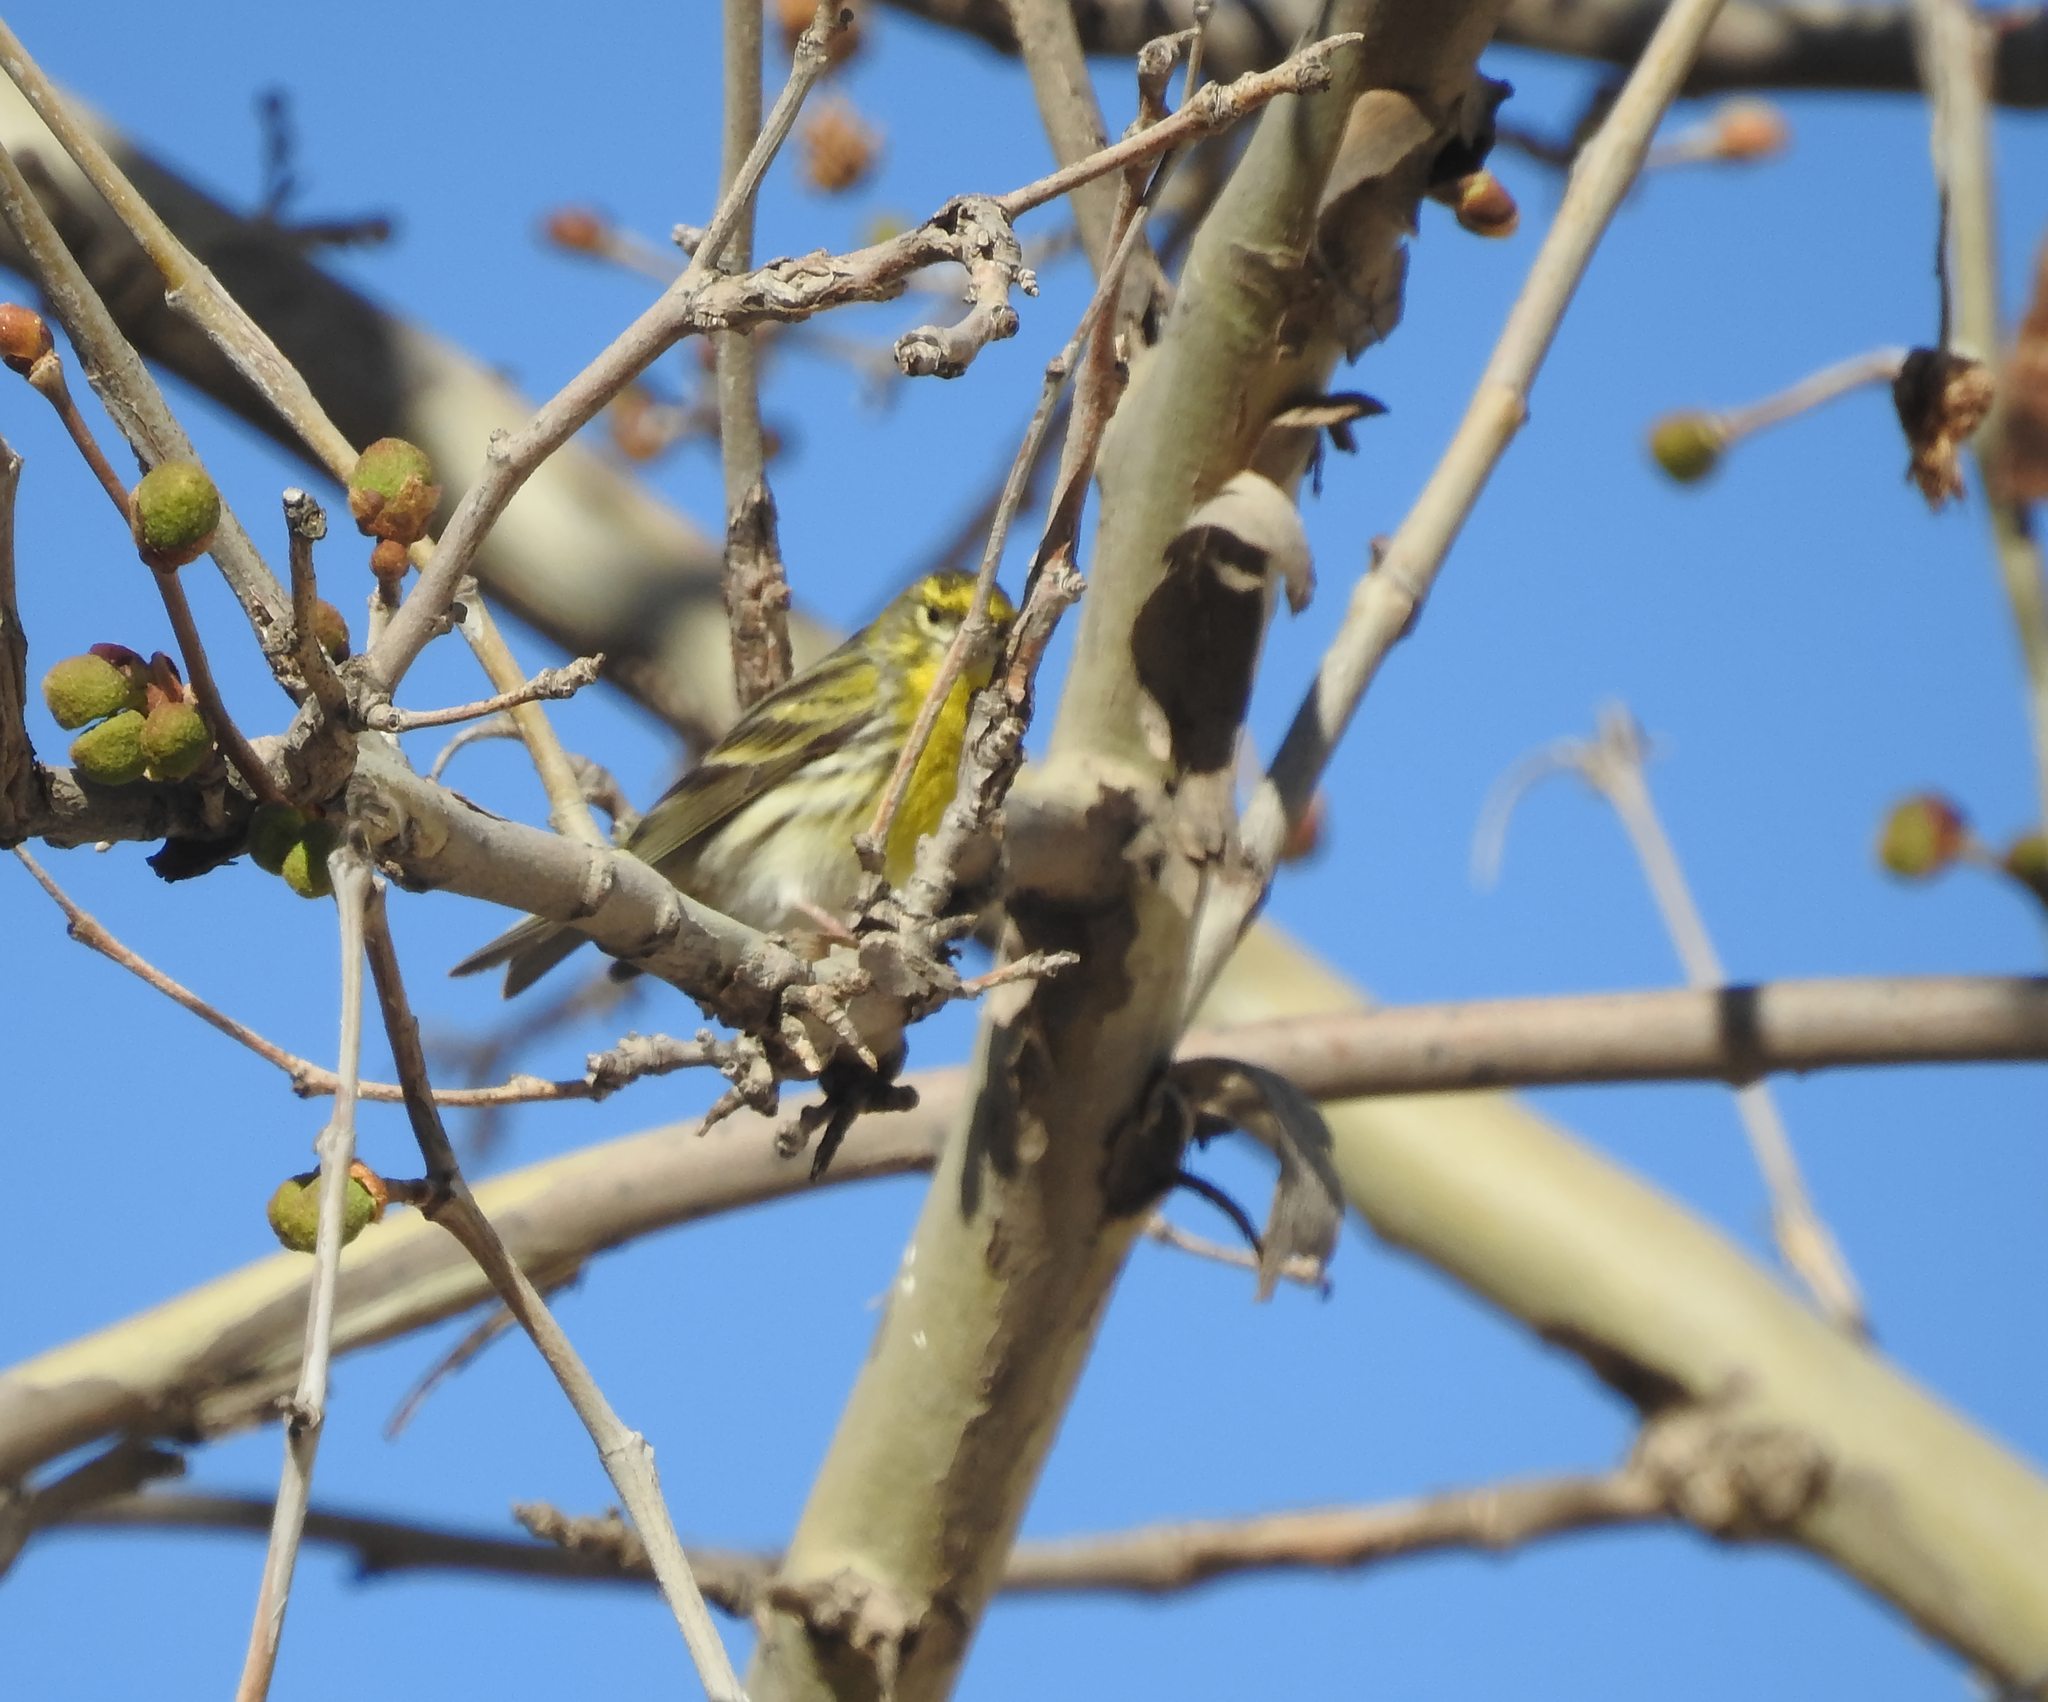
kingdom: Animalia
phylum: Chordata
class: Aves
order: Passeriformes
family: Fringillidae
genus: Serinus
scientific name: Serinus serinus
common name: European serin
